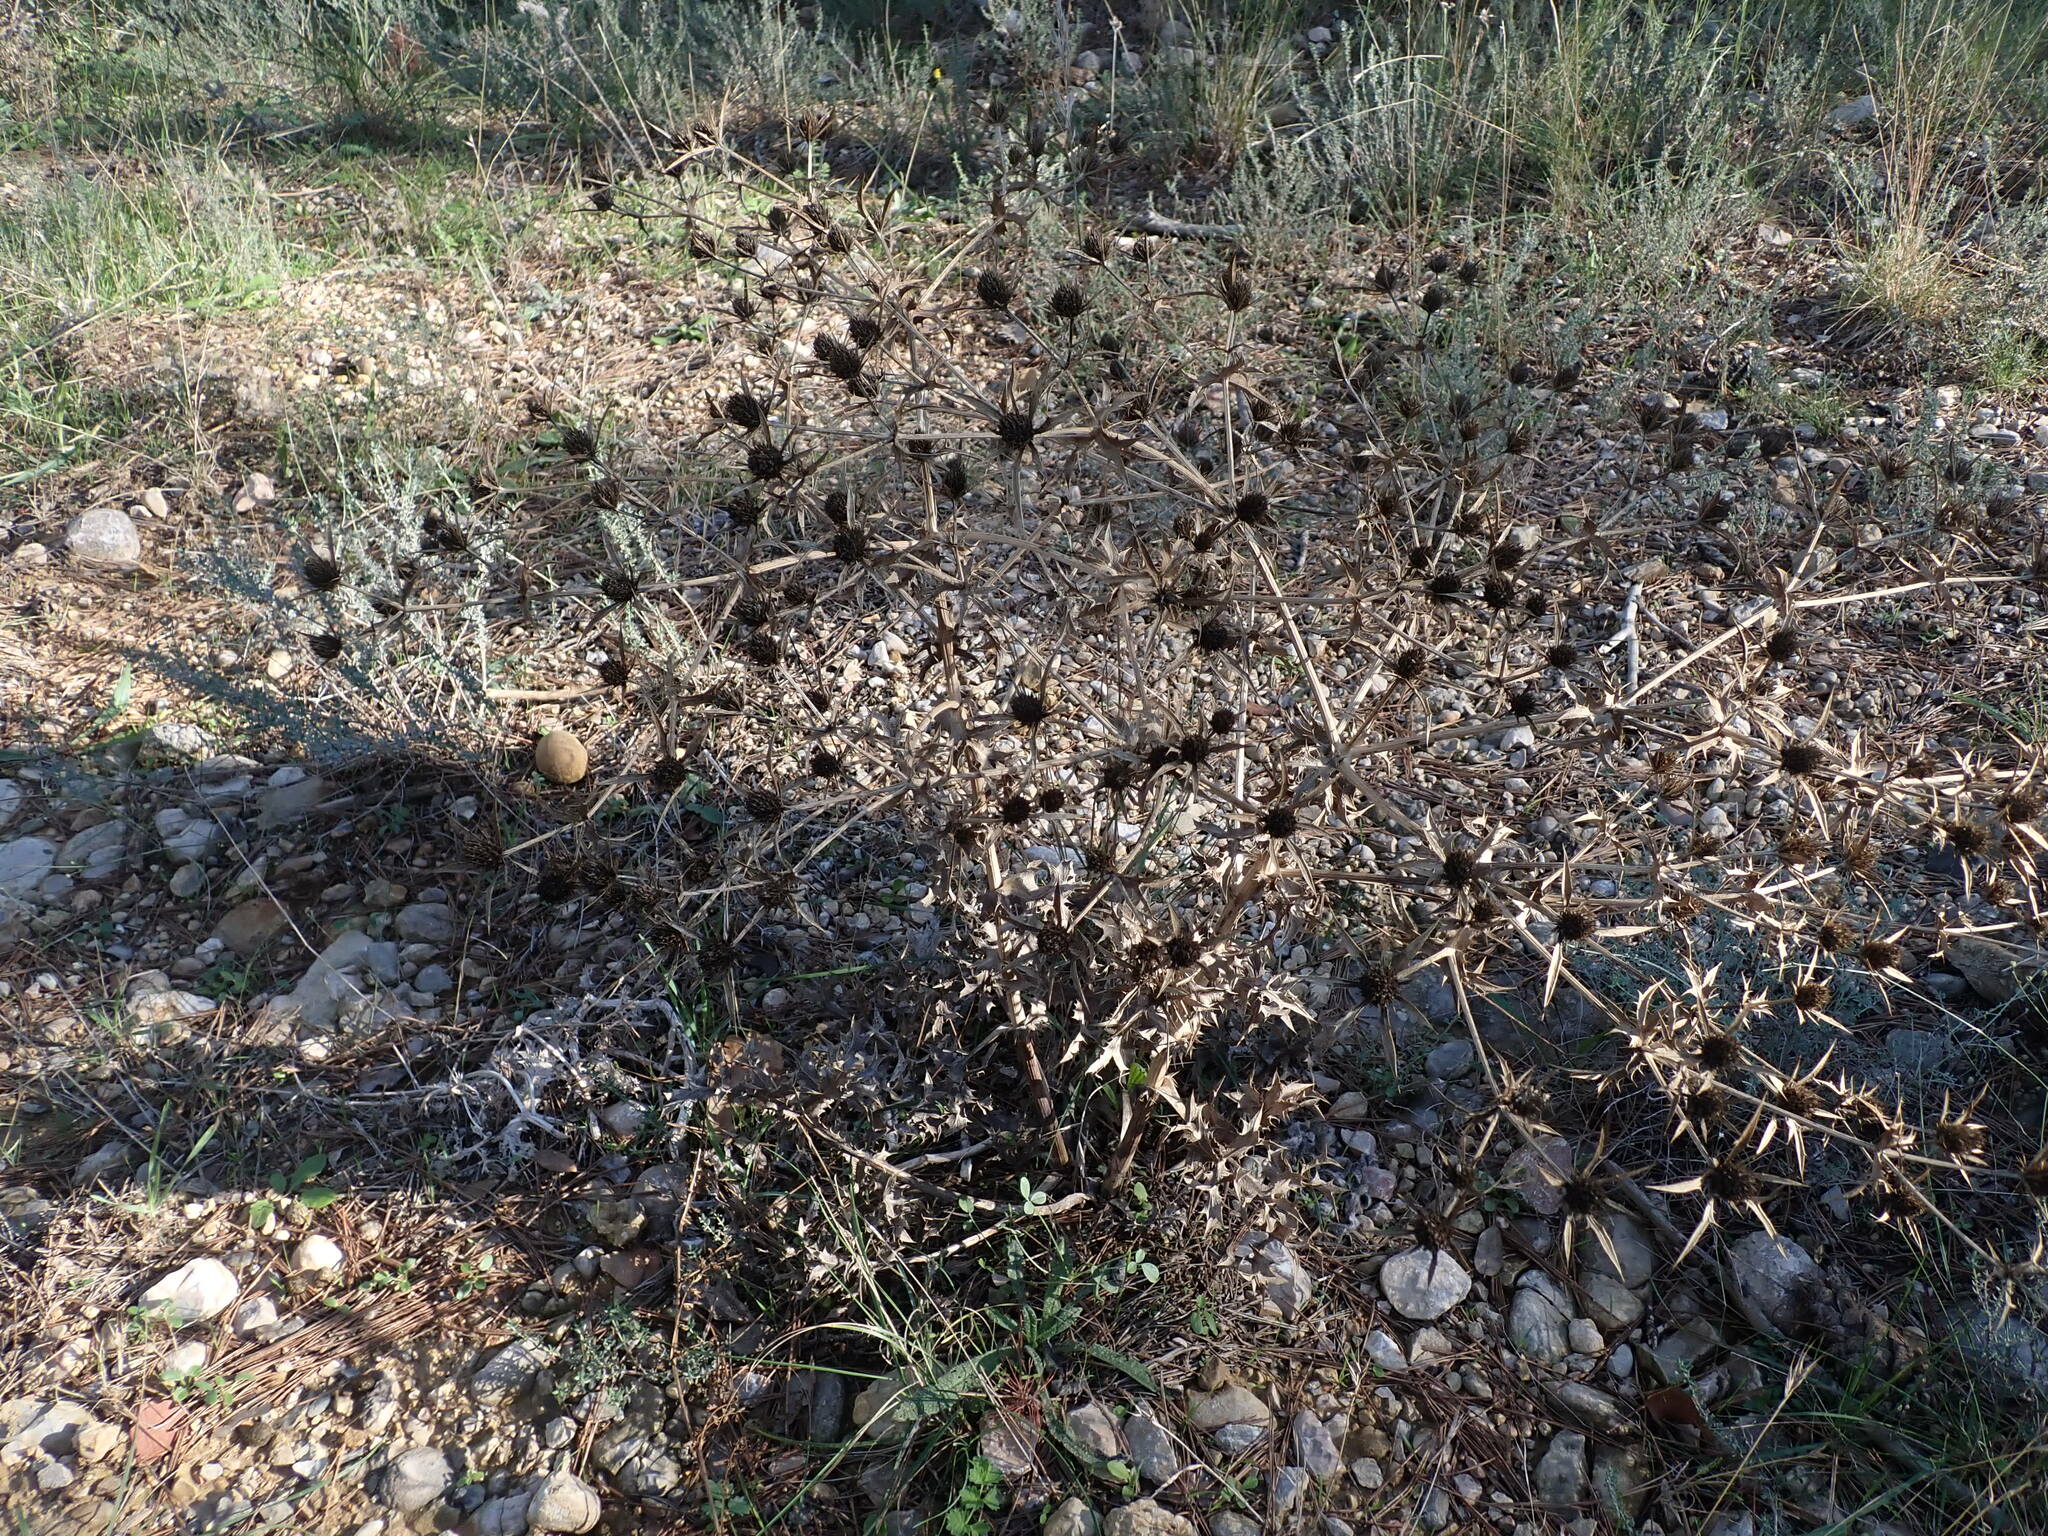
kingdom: Plantae
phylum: Tracheophyta
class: Magnoliopsida
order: Apiales
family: Apiaceae
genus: Eryngium
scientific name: Eryngium campestre
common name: Field eryngo
